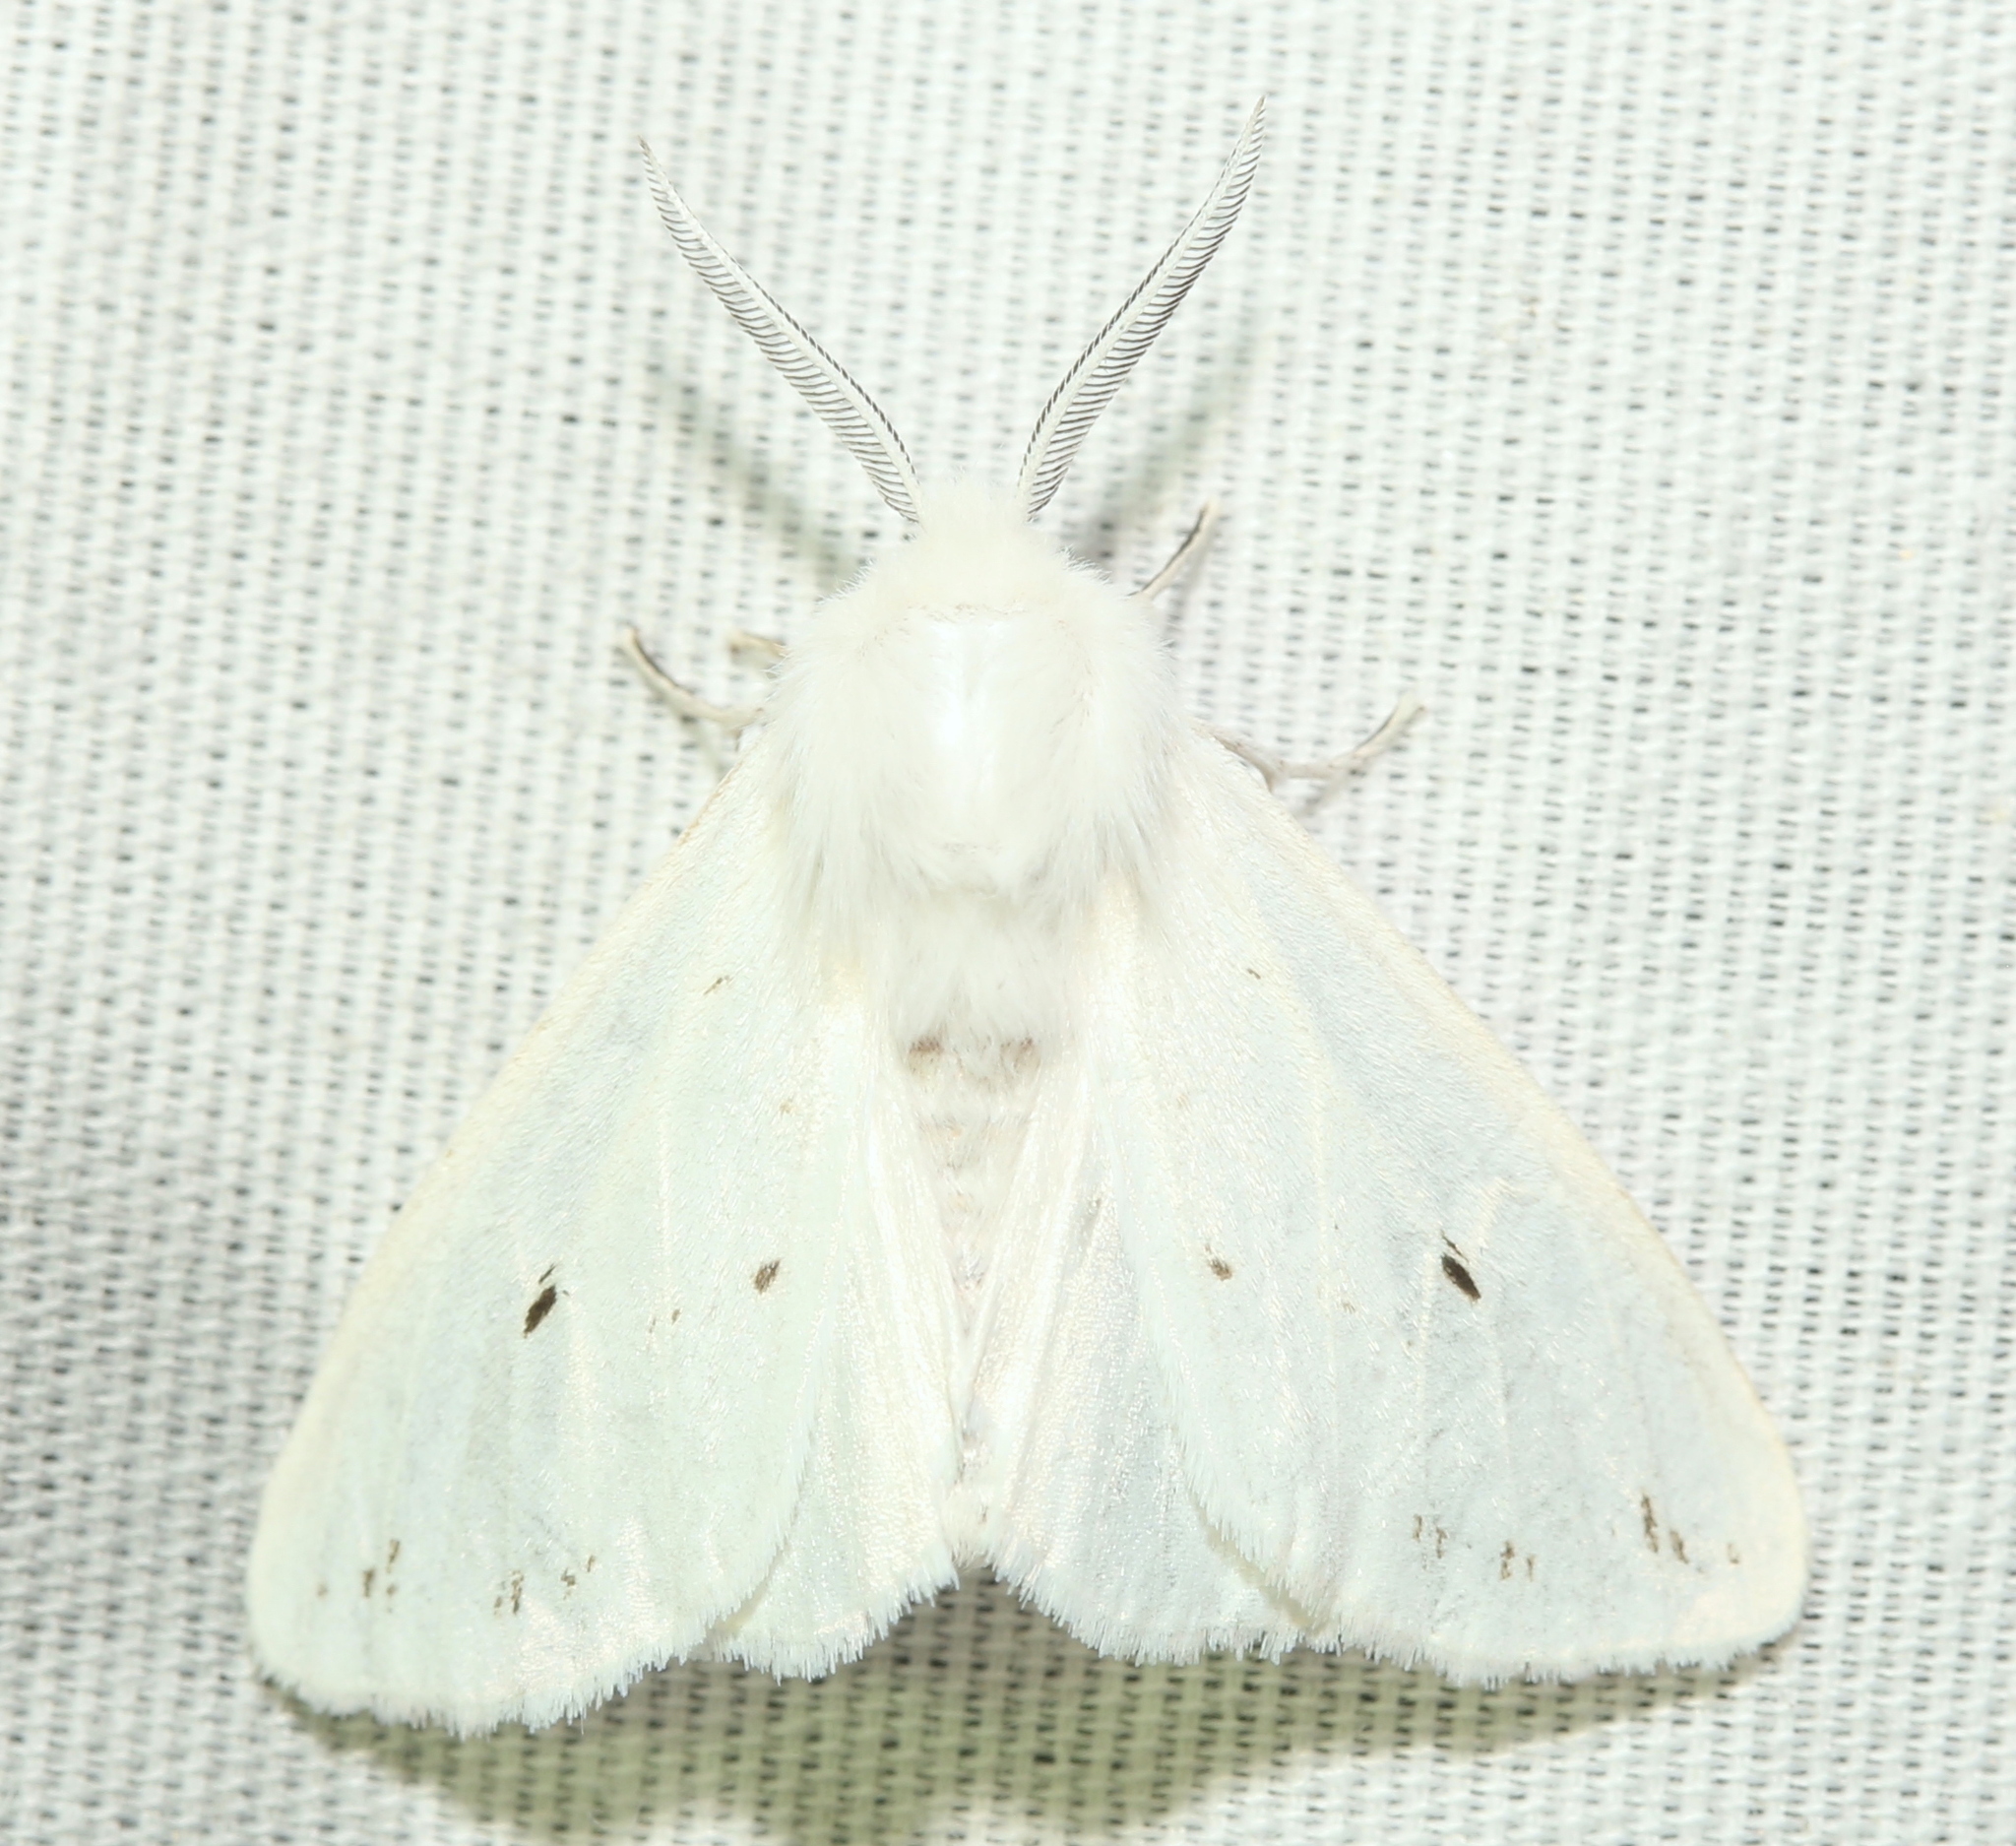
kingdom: Animalia
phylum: Arthropoda
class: Insecta
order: Lepidoptera
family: Erebidae
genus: Spilosoma
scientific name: Spilosoma congrua
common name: Agreeable tiger moth
